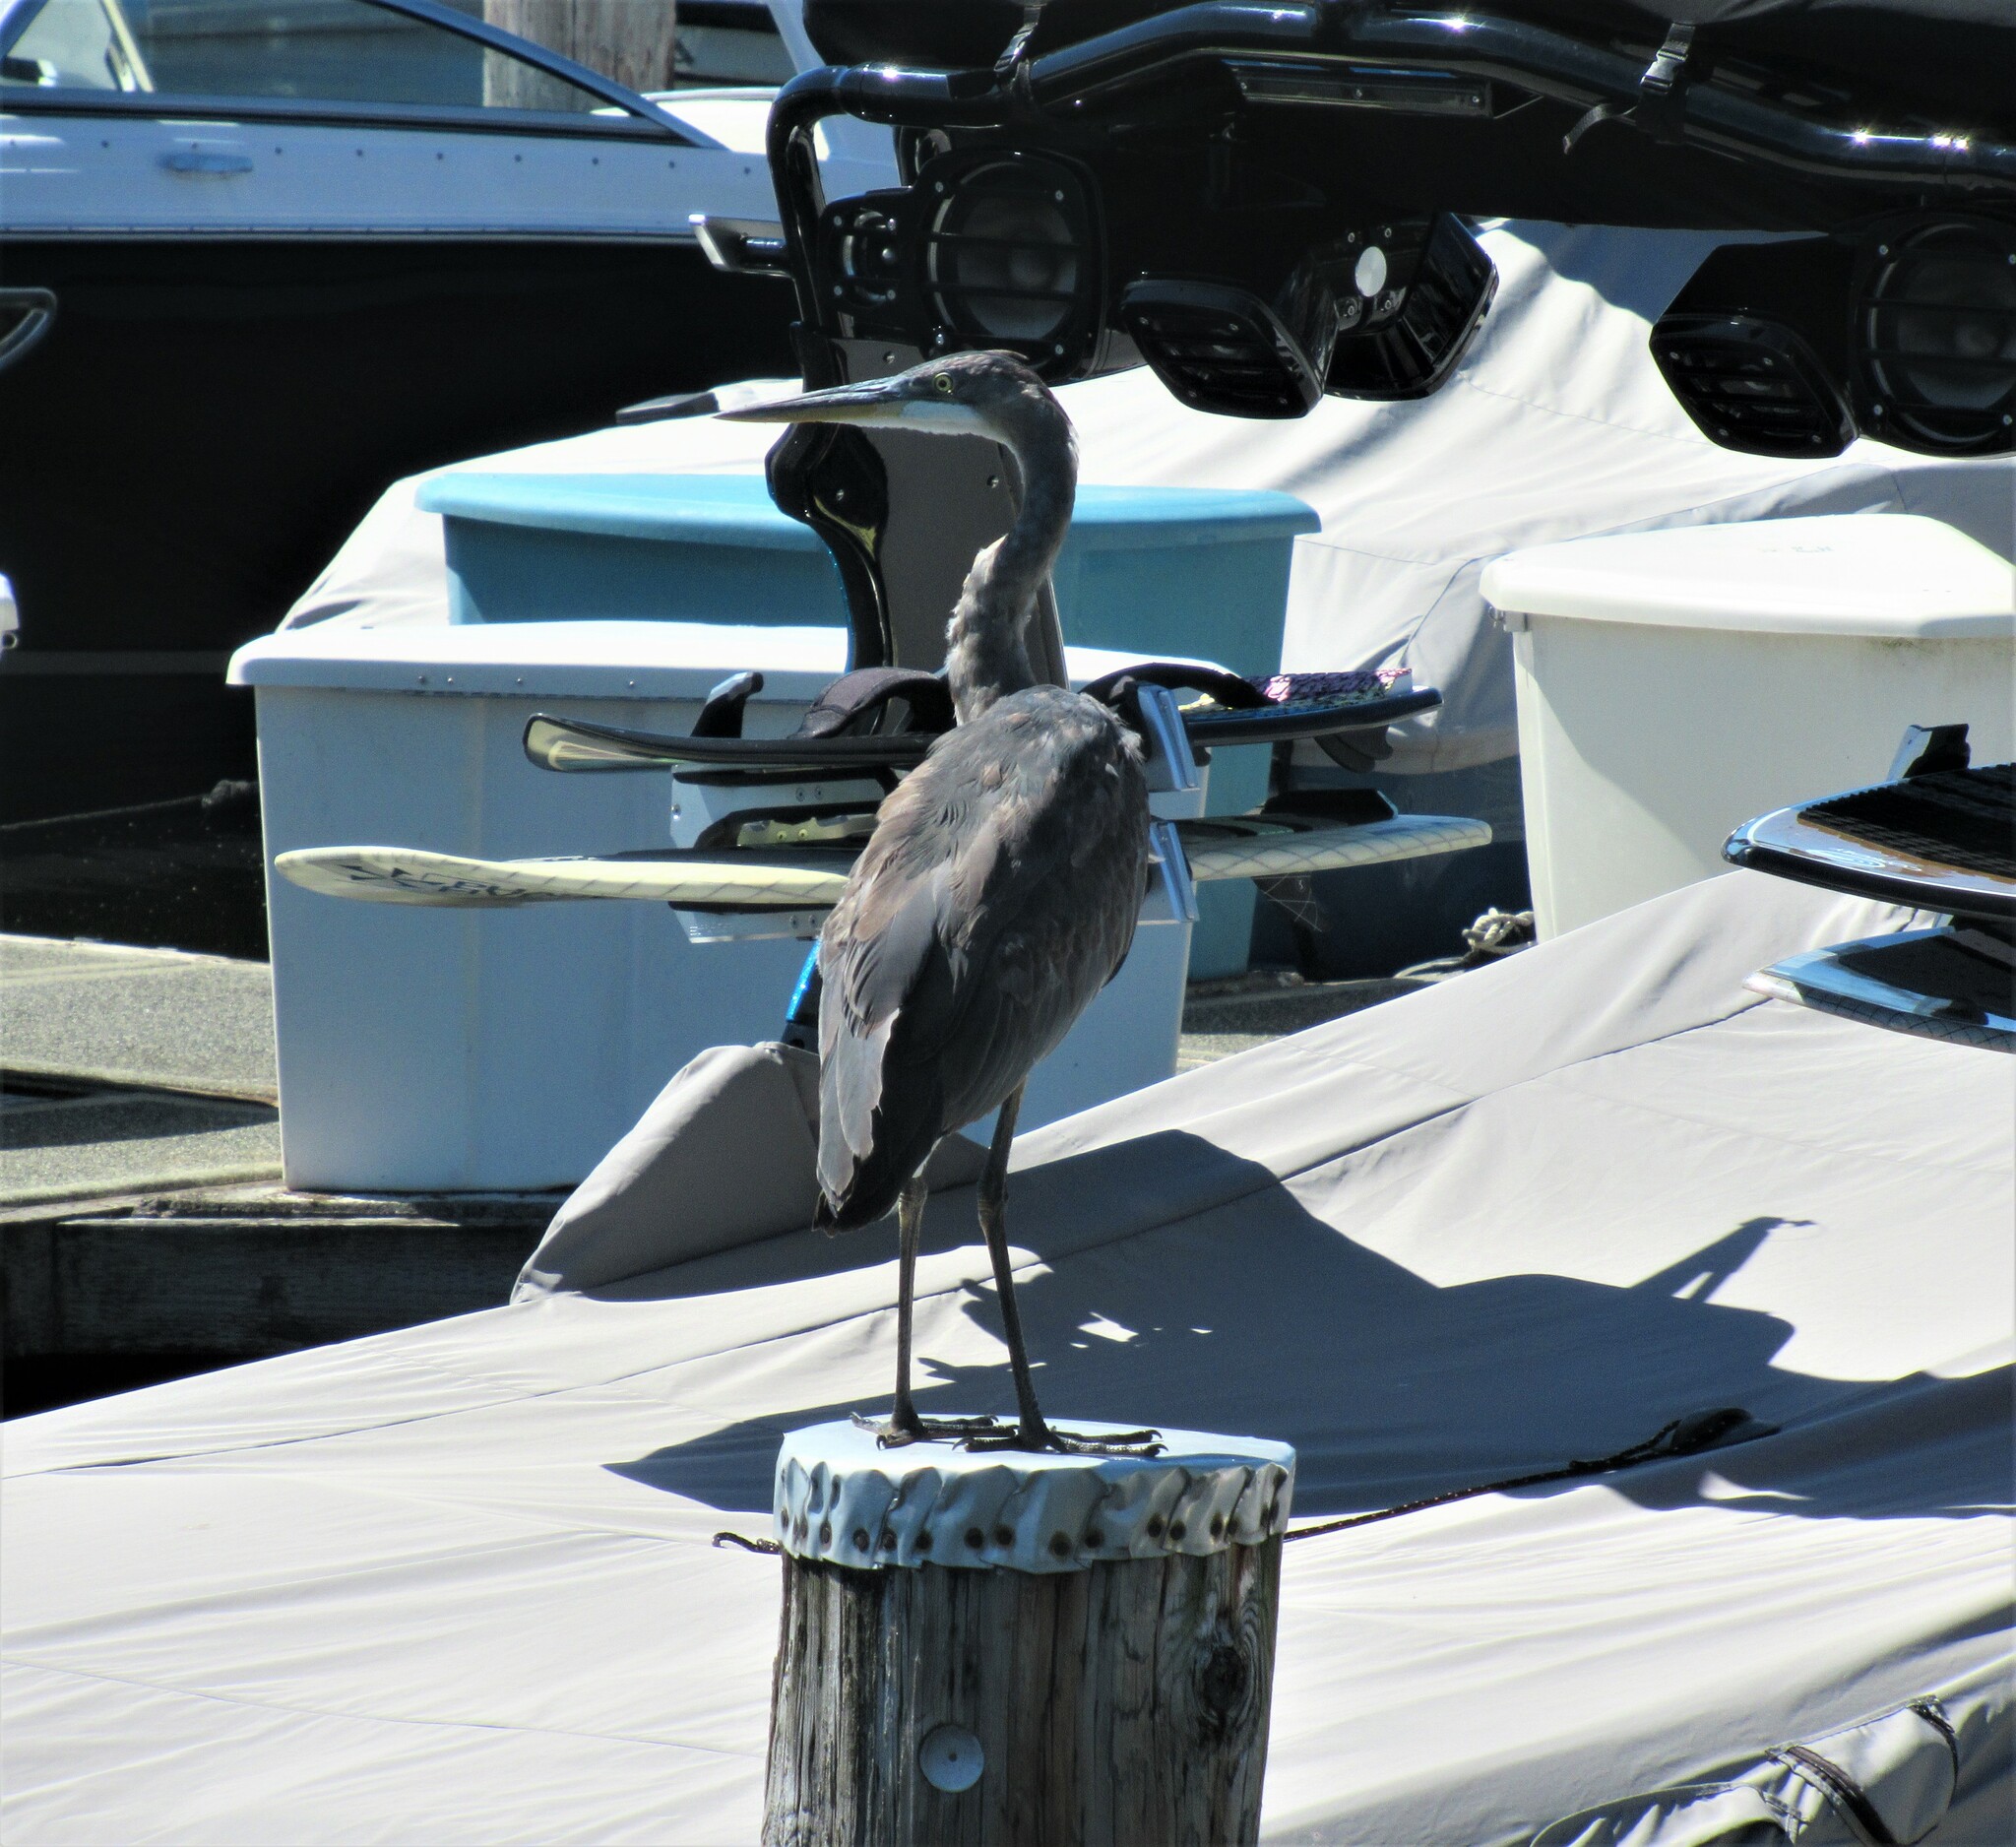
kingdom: Animalia
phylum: Chordata
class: Aves
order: Pelecaniformes
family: Ardeidae
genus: Ardea
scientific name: Ardea herodias
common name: Great blue heron
